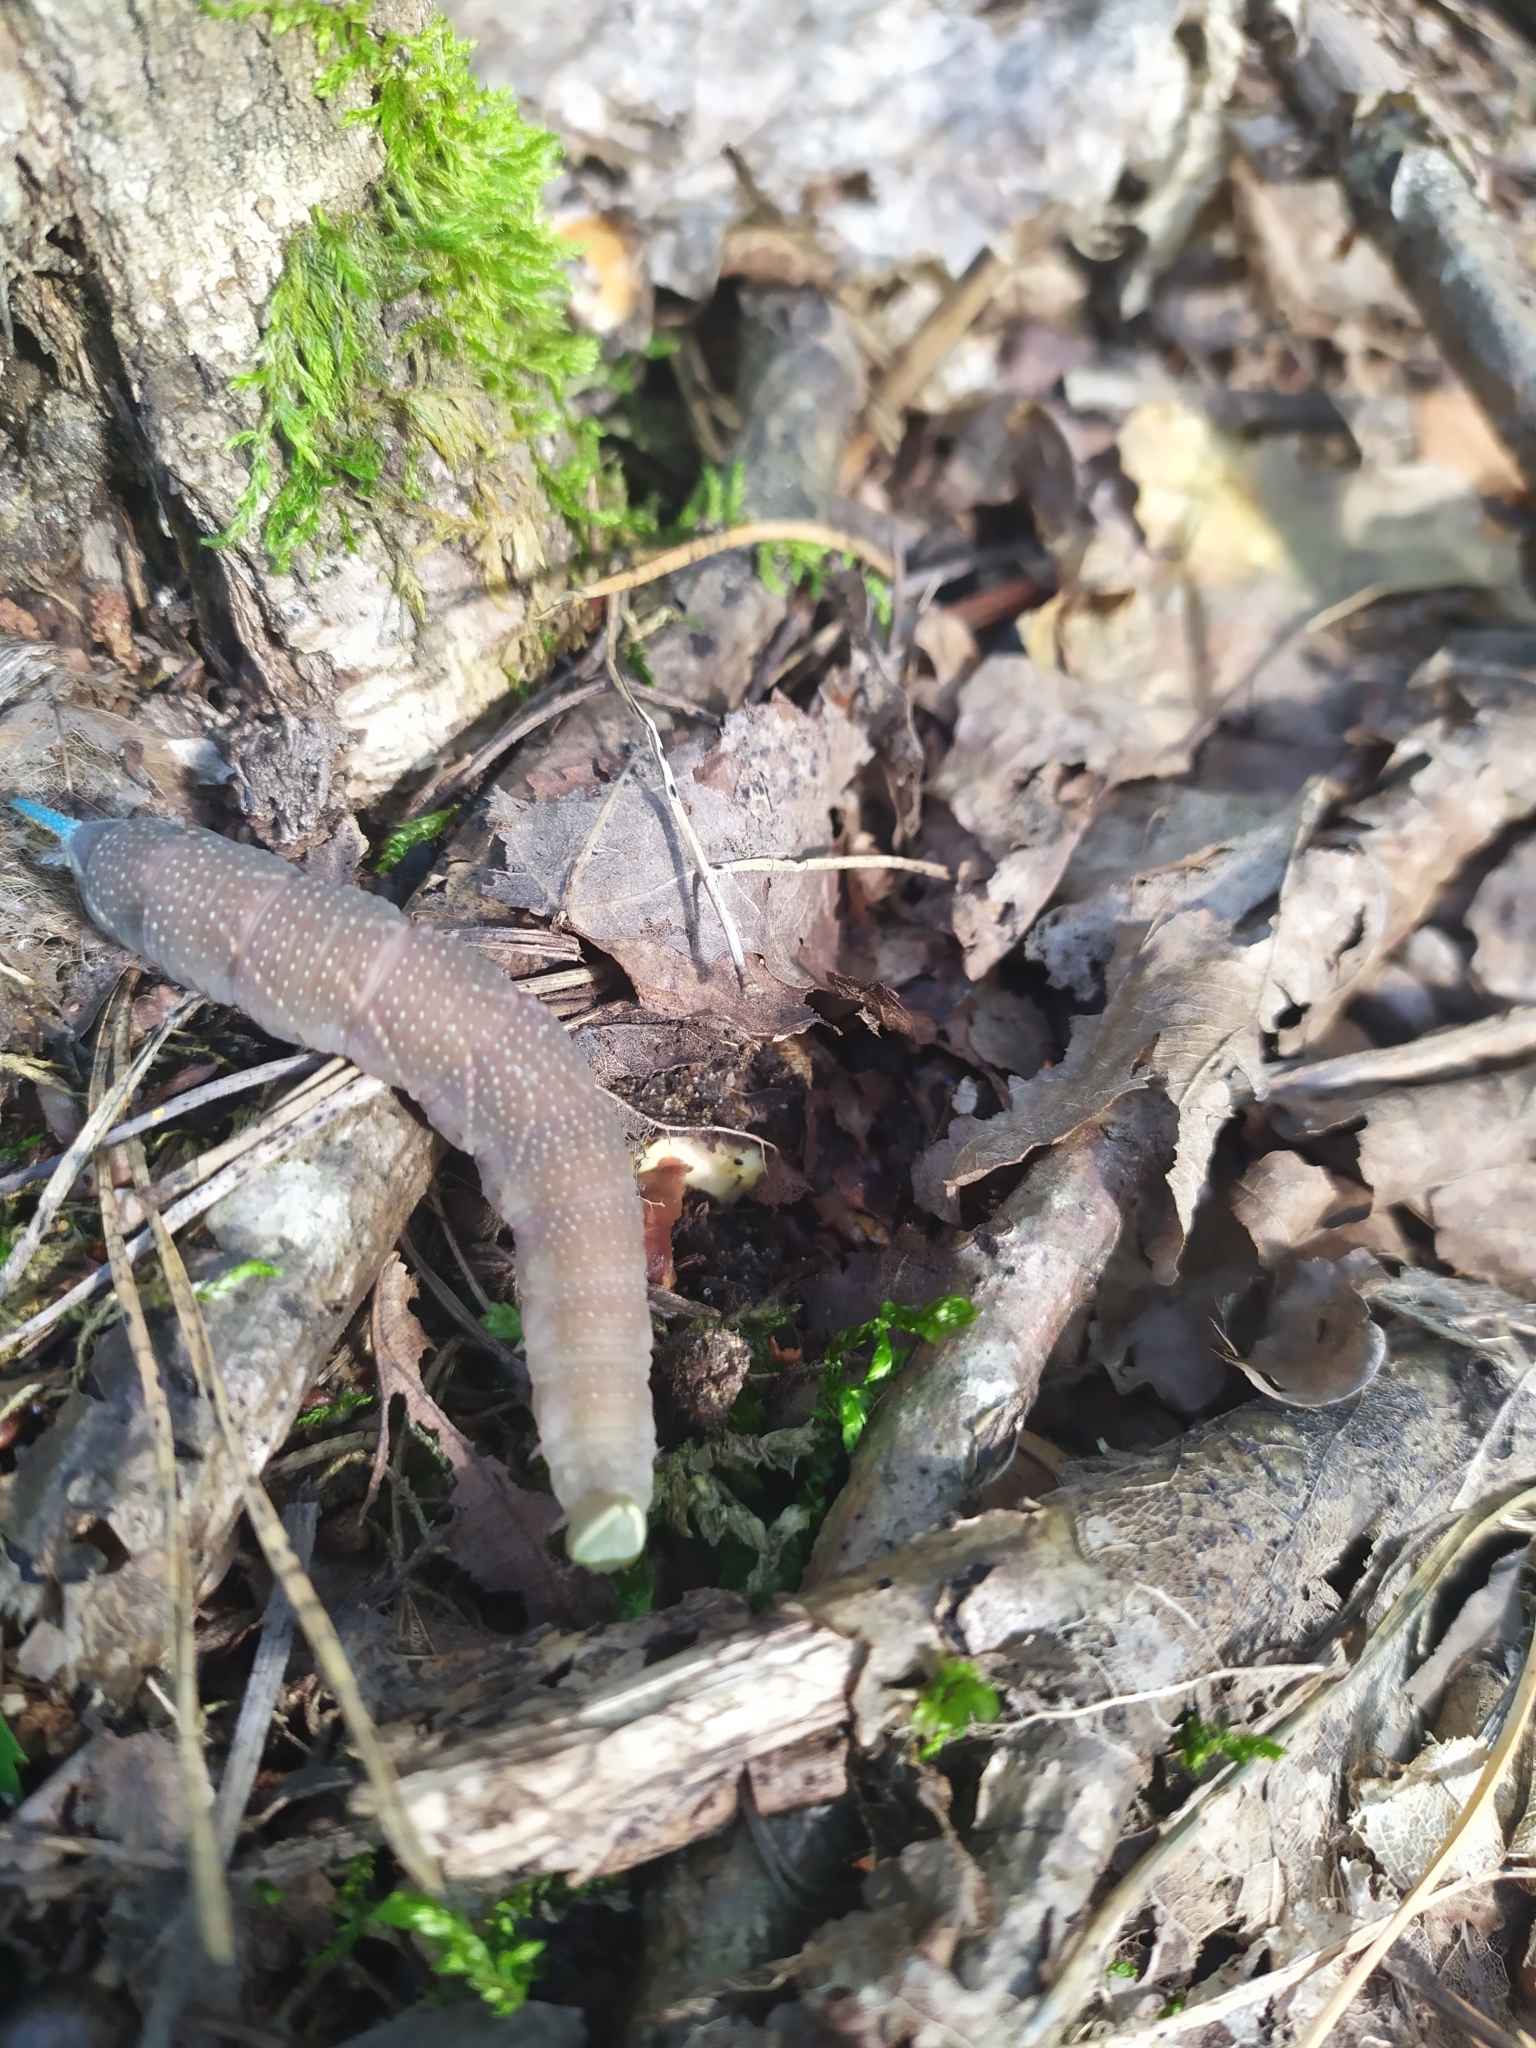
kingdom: Animalia
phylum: Arthropoda
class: Insecta
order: Lepidoptera
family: Sphingidae
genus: Mimas
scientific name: Mimas tiliae
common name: Lime hawk-moth
